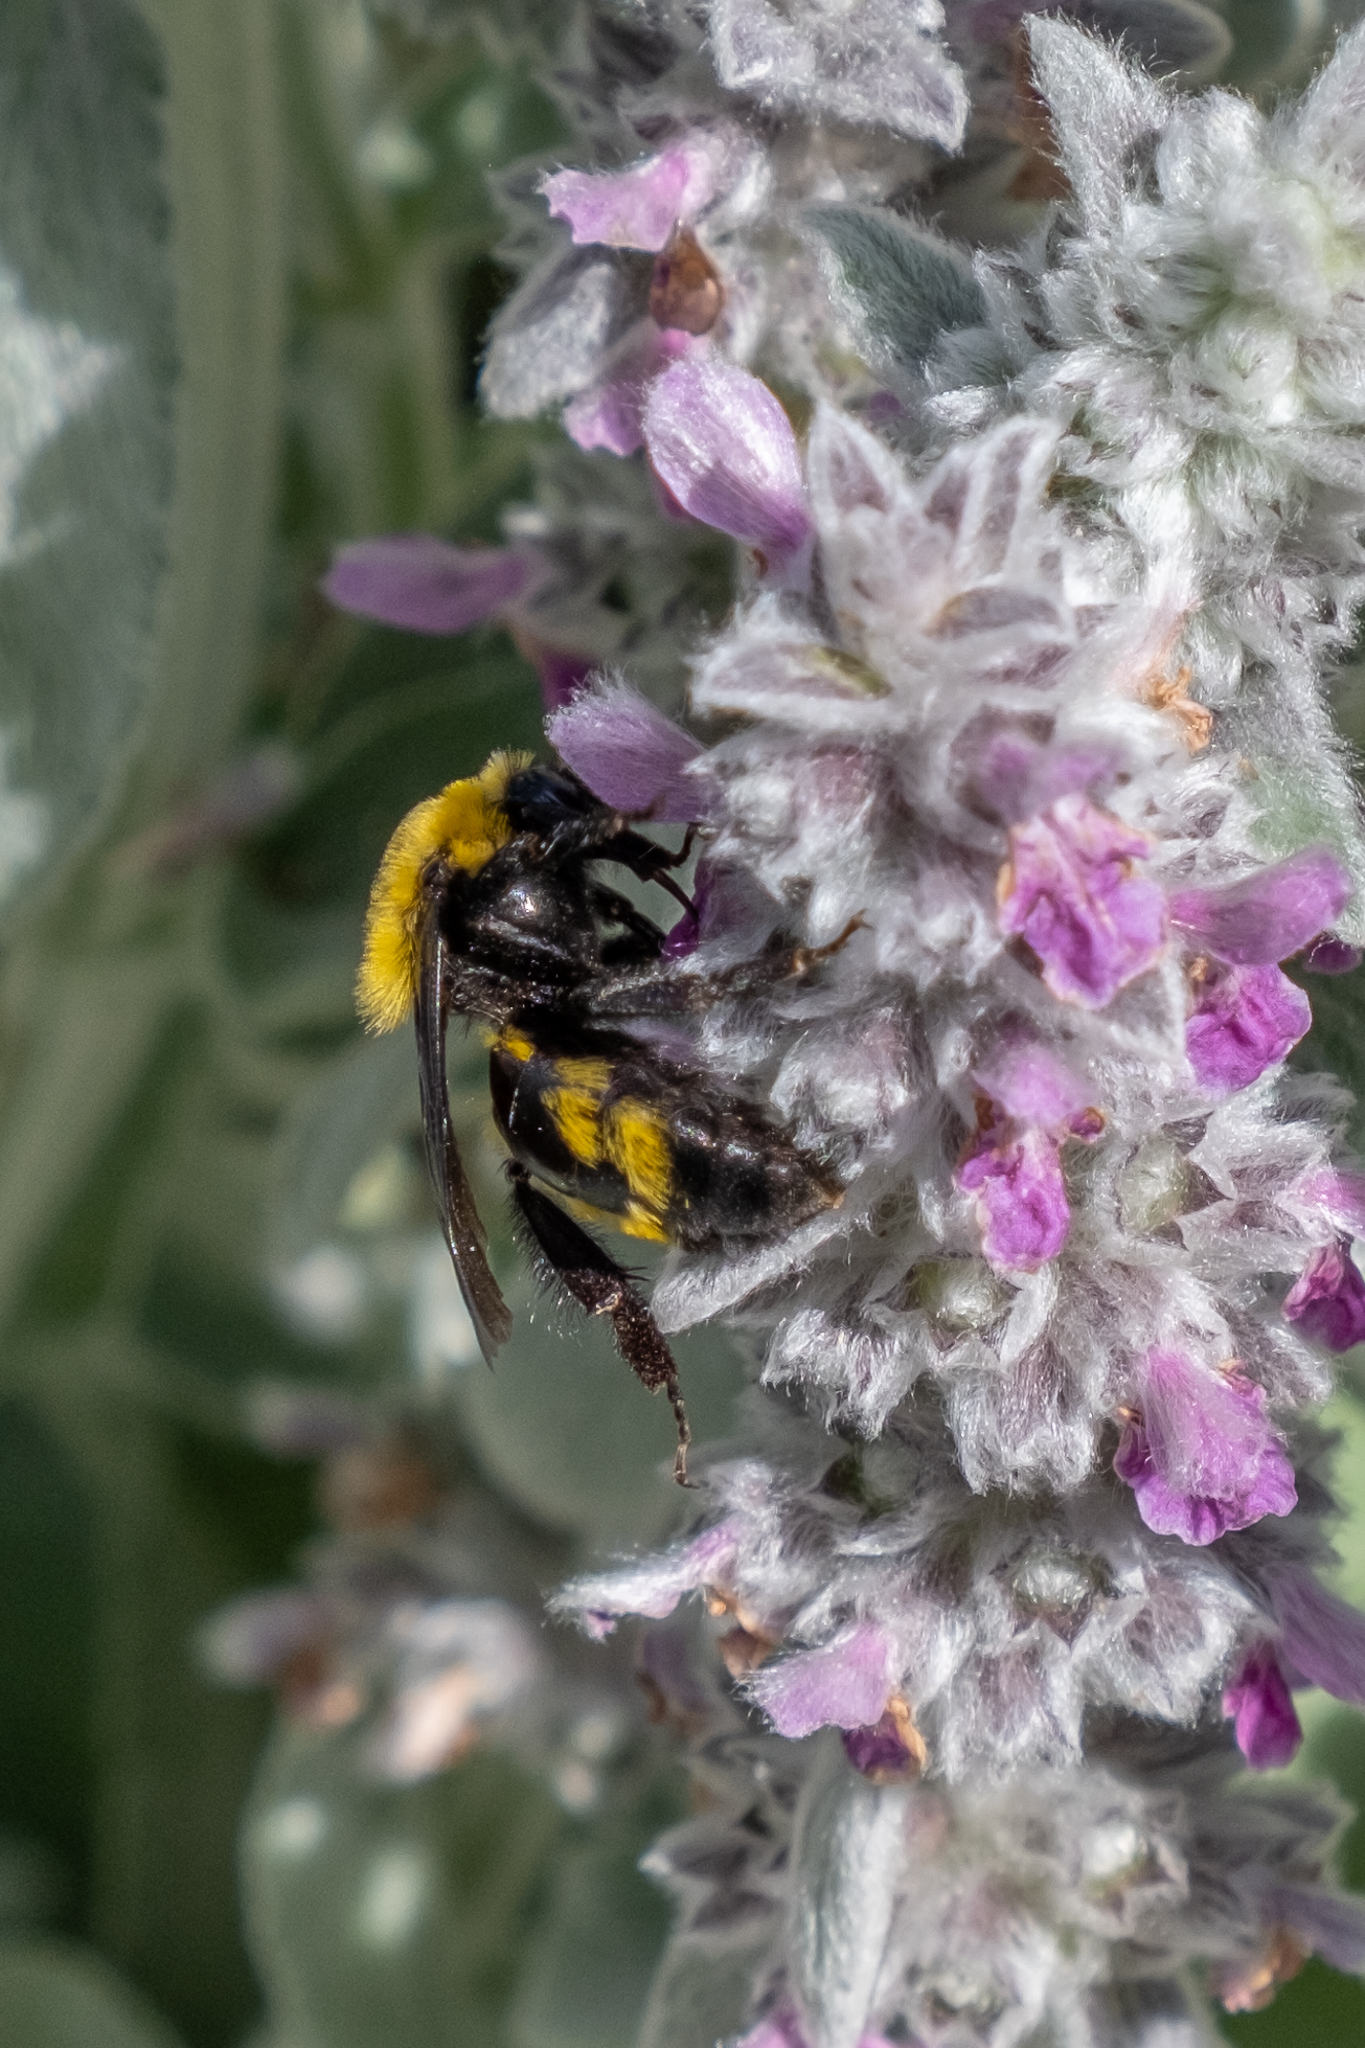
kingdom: Animalia
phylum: Arthropoda
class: Insecta
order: Hymenoptera
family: Apidae
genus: Bombus
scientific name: Bombus morrisoni
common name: Morrison bumble bee
